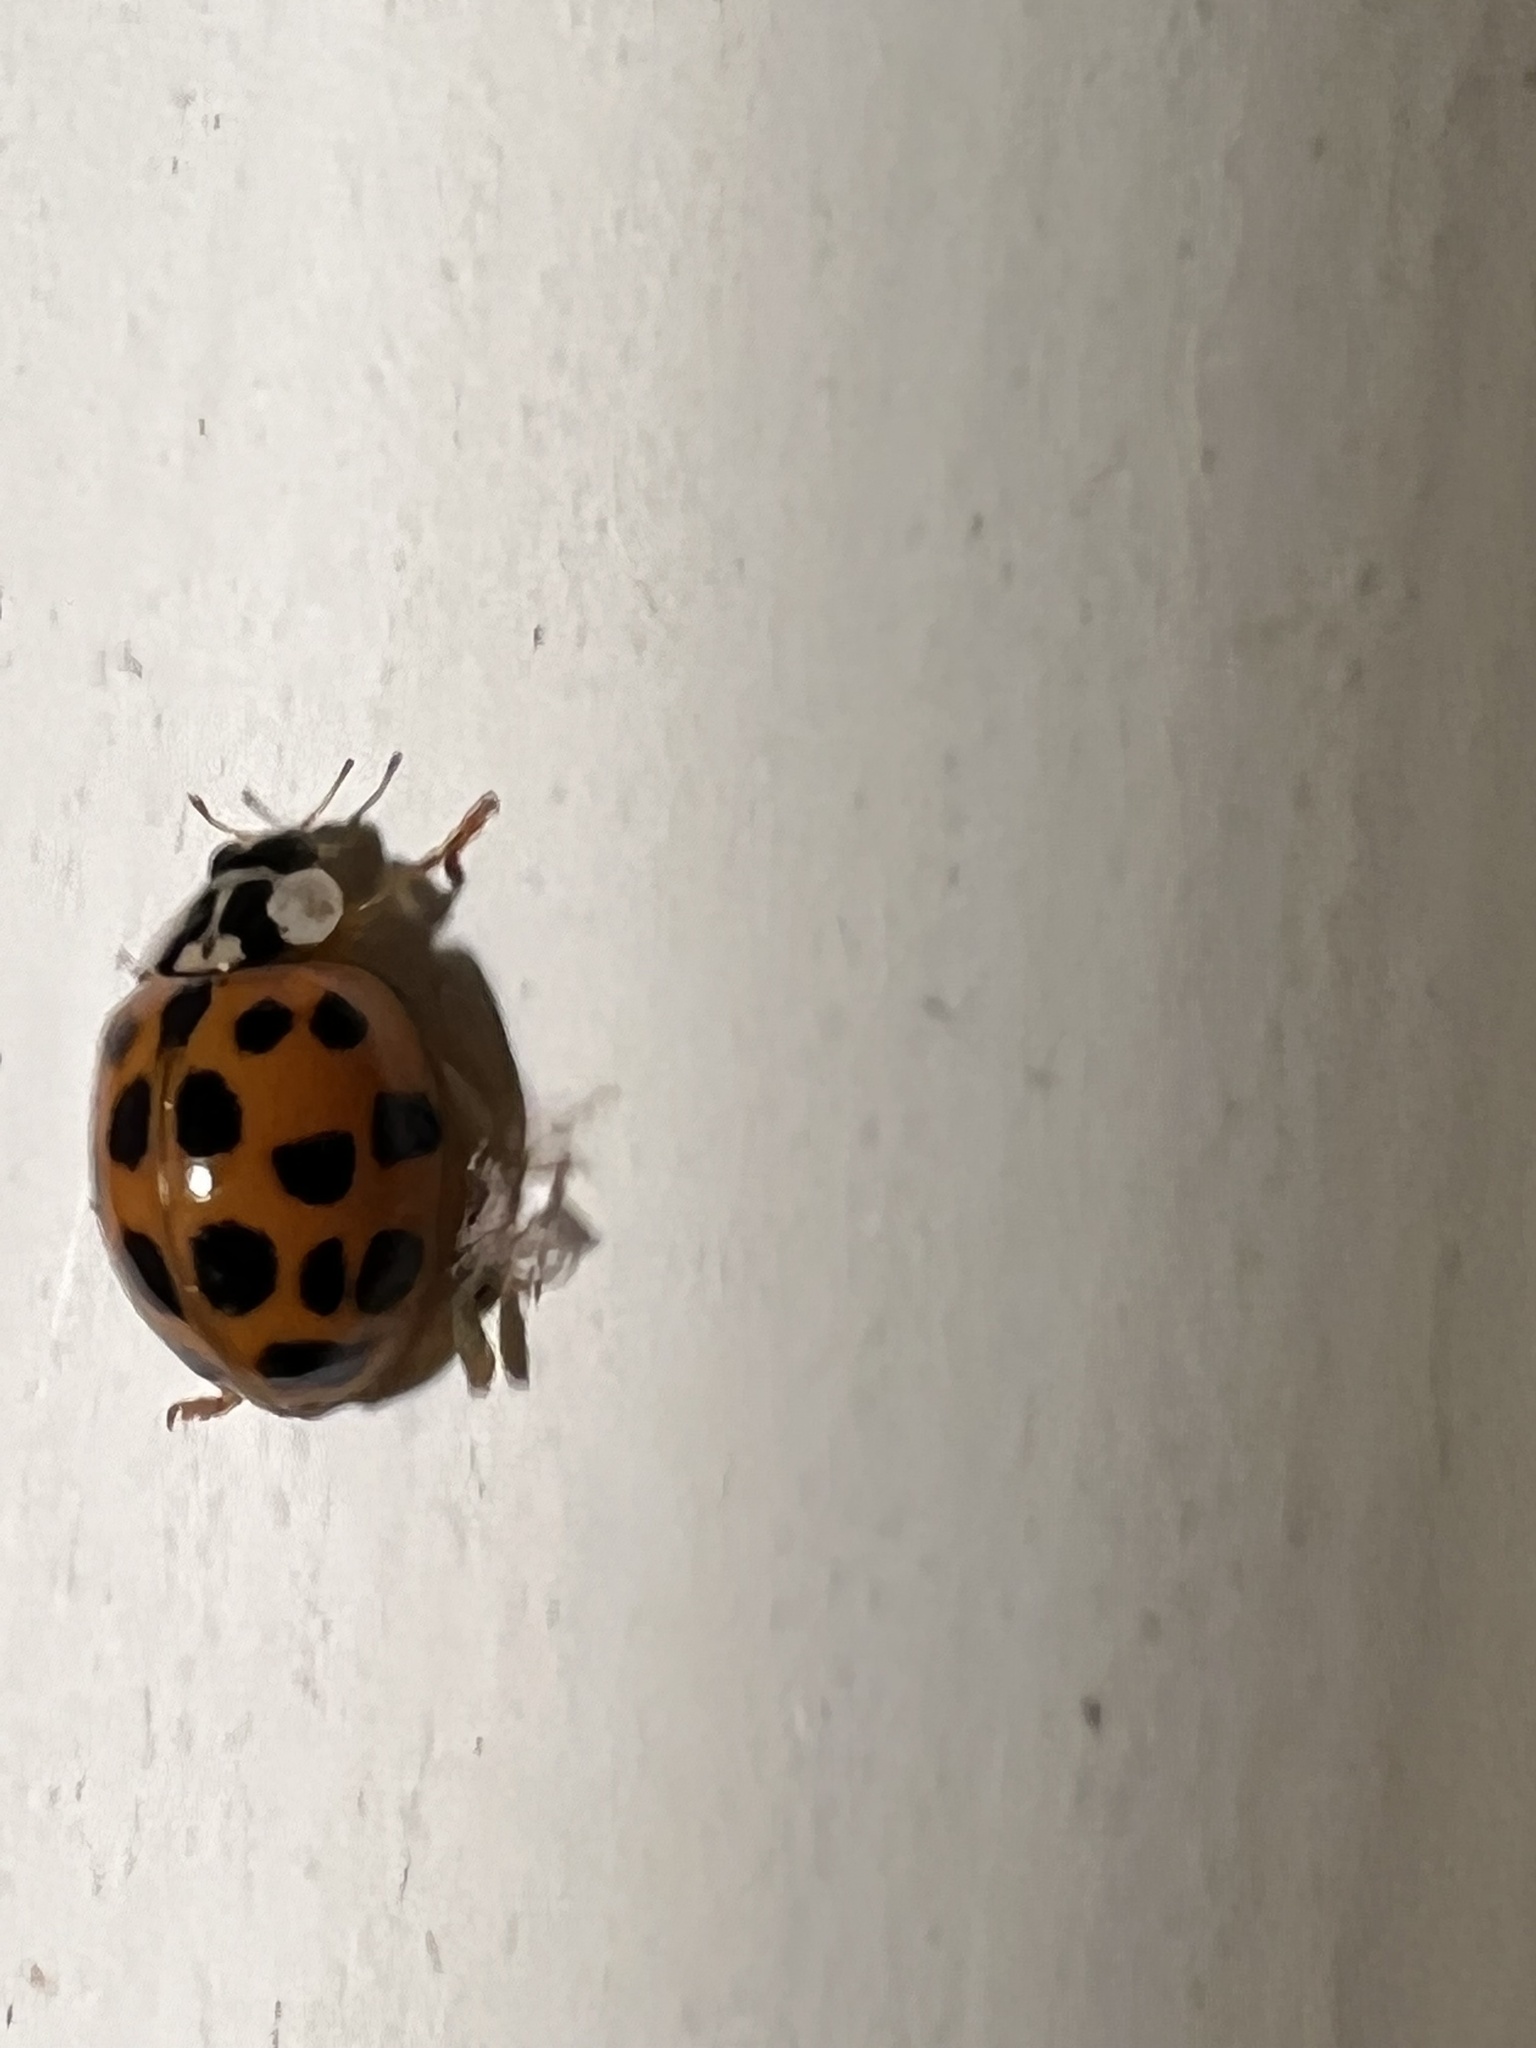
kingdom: Animalia
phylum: Arthropoda
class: Insecta
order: Coleoptera
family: Coccinellidae
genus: Harmonia
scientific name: Harmonia axyridis
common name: Harlequin ladybird
